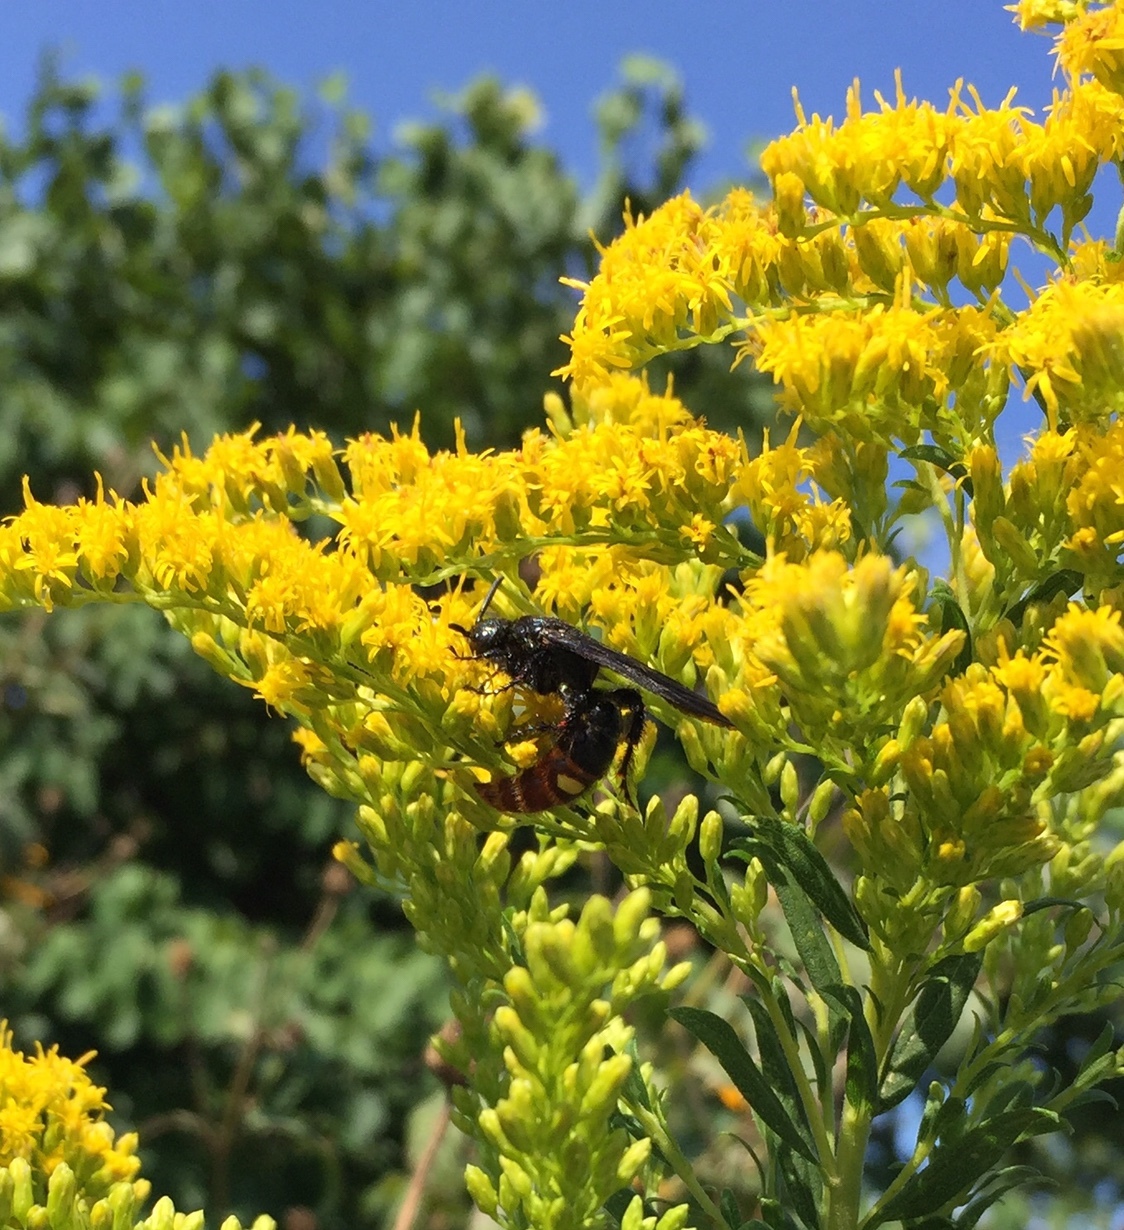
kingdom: Animalia
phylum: Arthropoda
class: Insecta
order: Hymenoptera
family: Scoliidae
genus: Scolia
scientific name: Scolia dubia
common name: Blue-winged scoliid wasp
